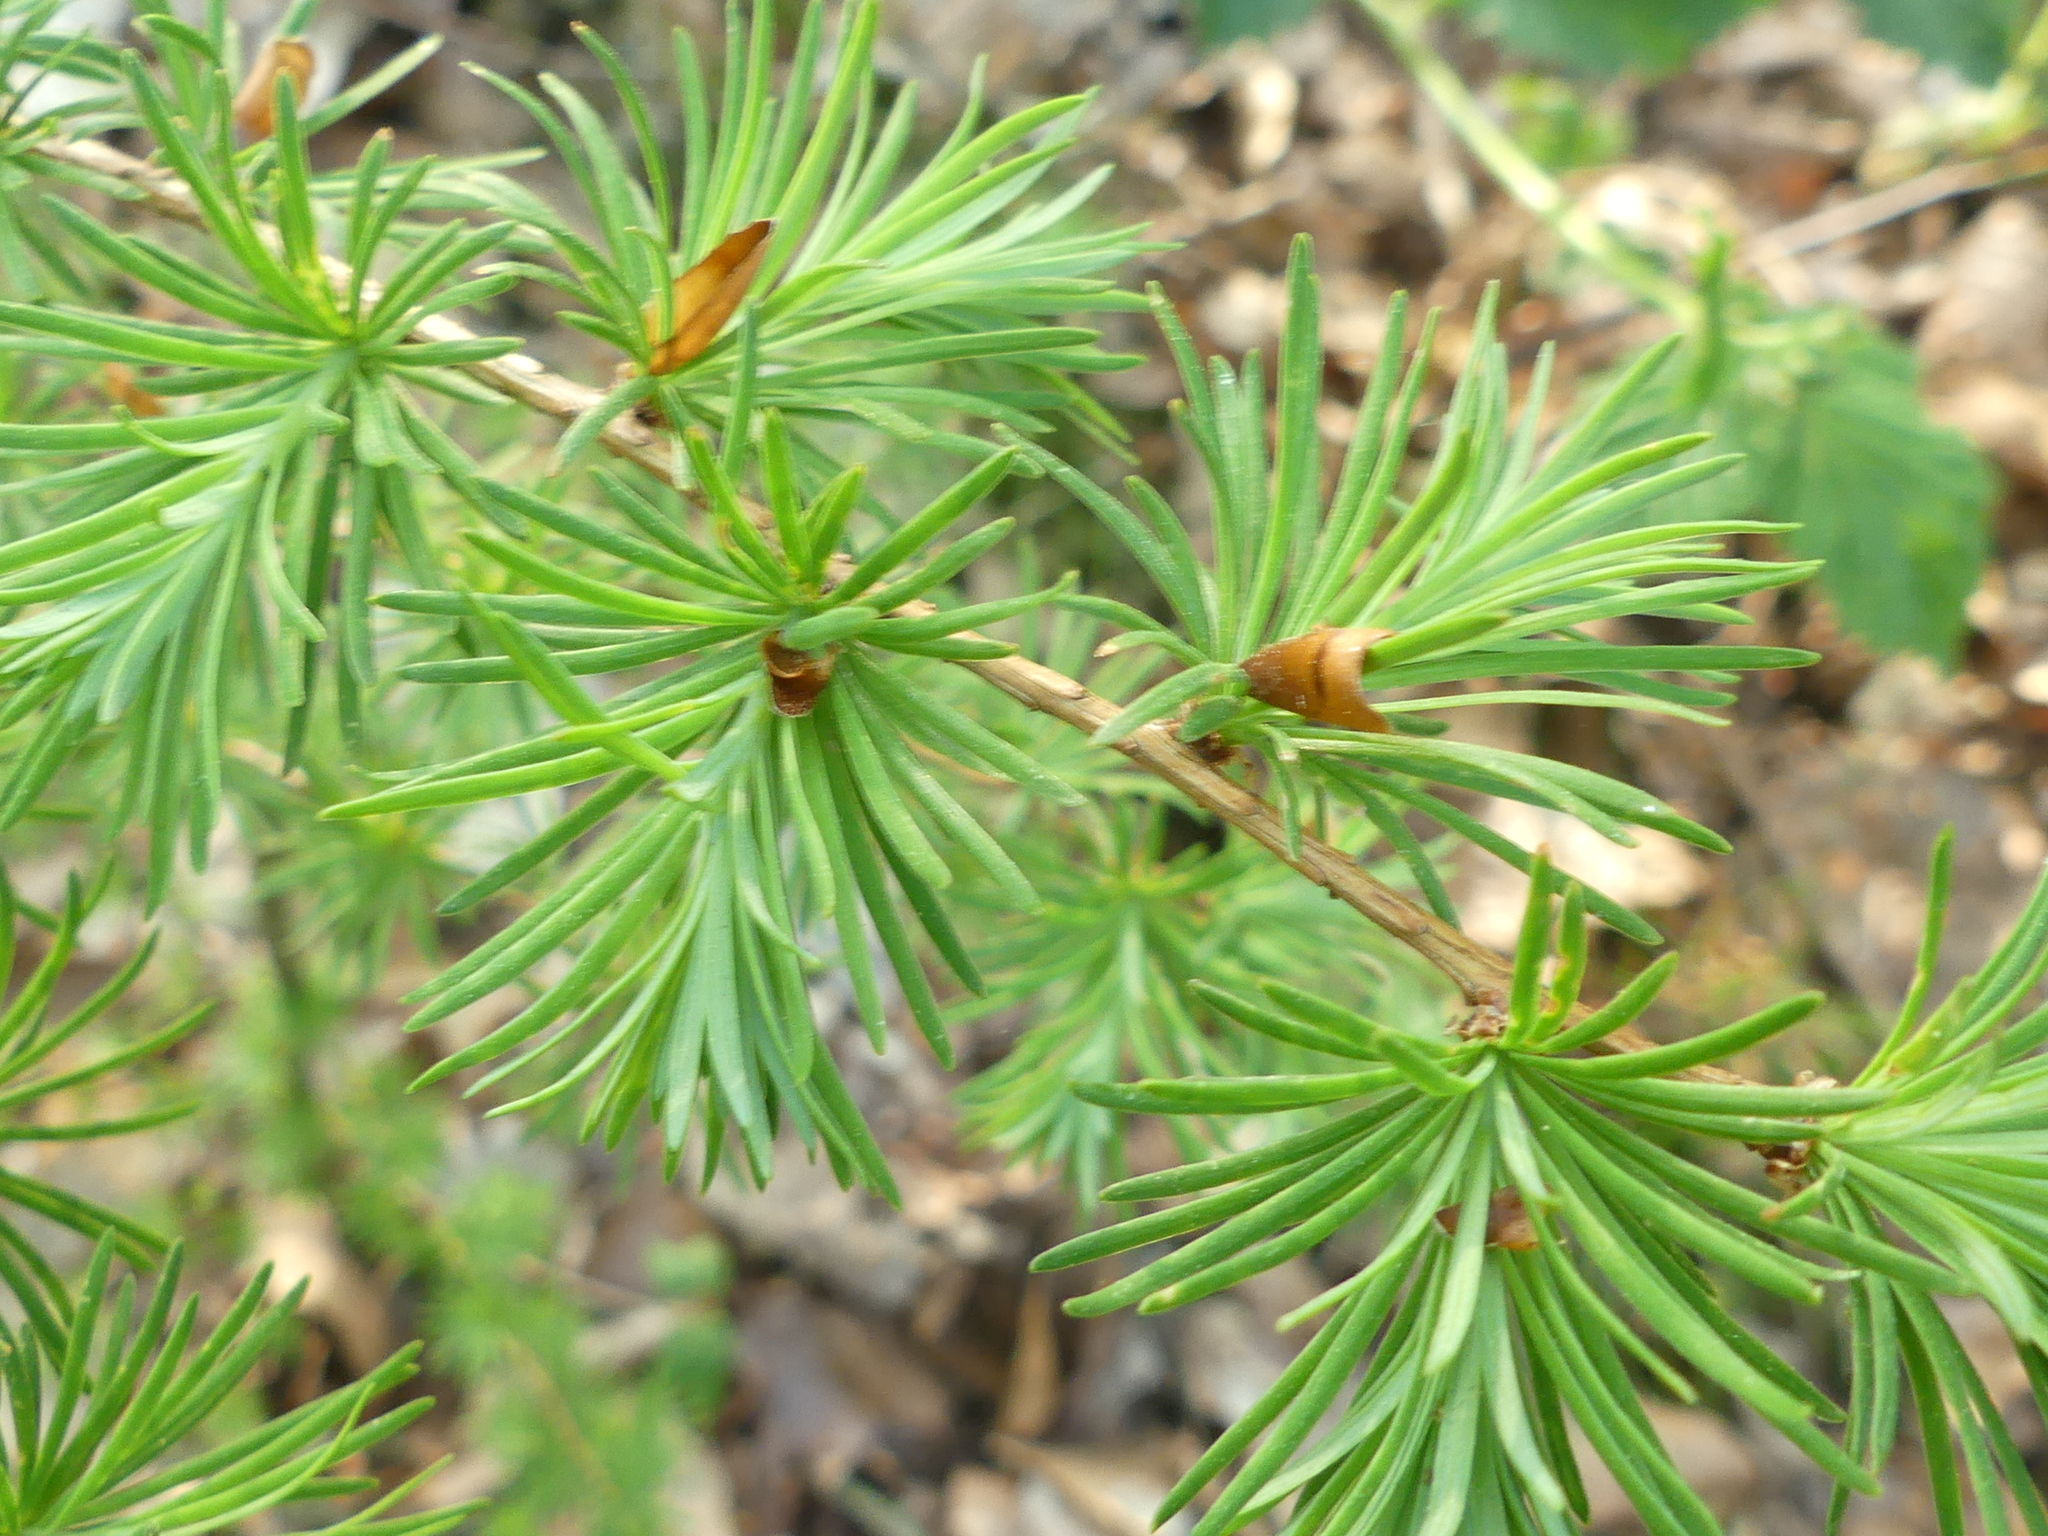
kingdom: Plantae
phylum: Tracheophyta
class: Pinopsida
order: Pinales
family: Pinaceae
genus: Larix
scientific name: Larix decidua
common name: European larch
